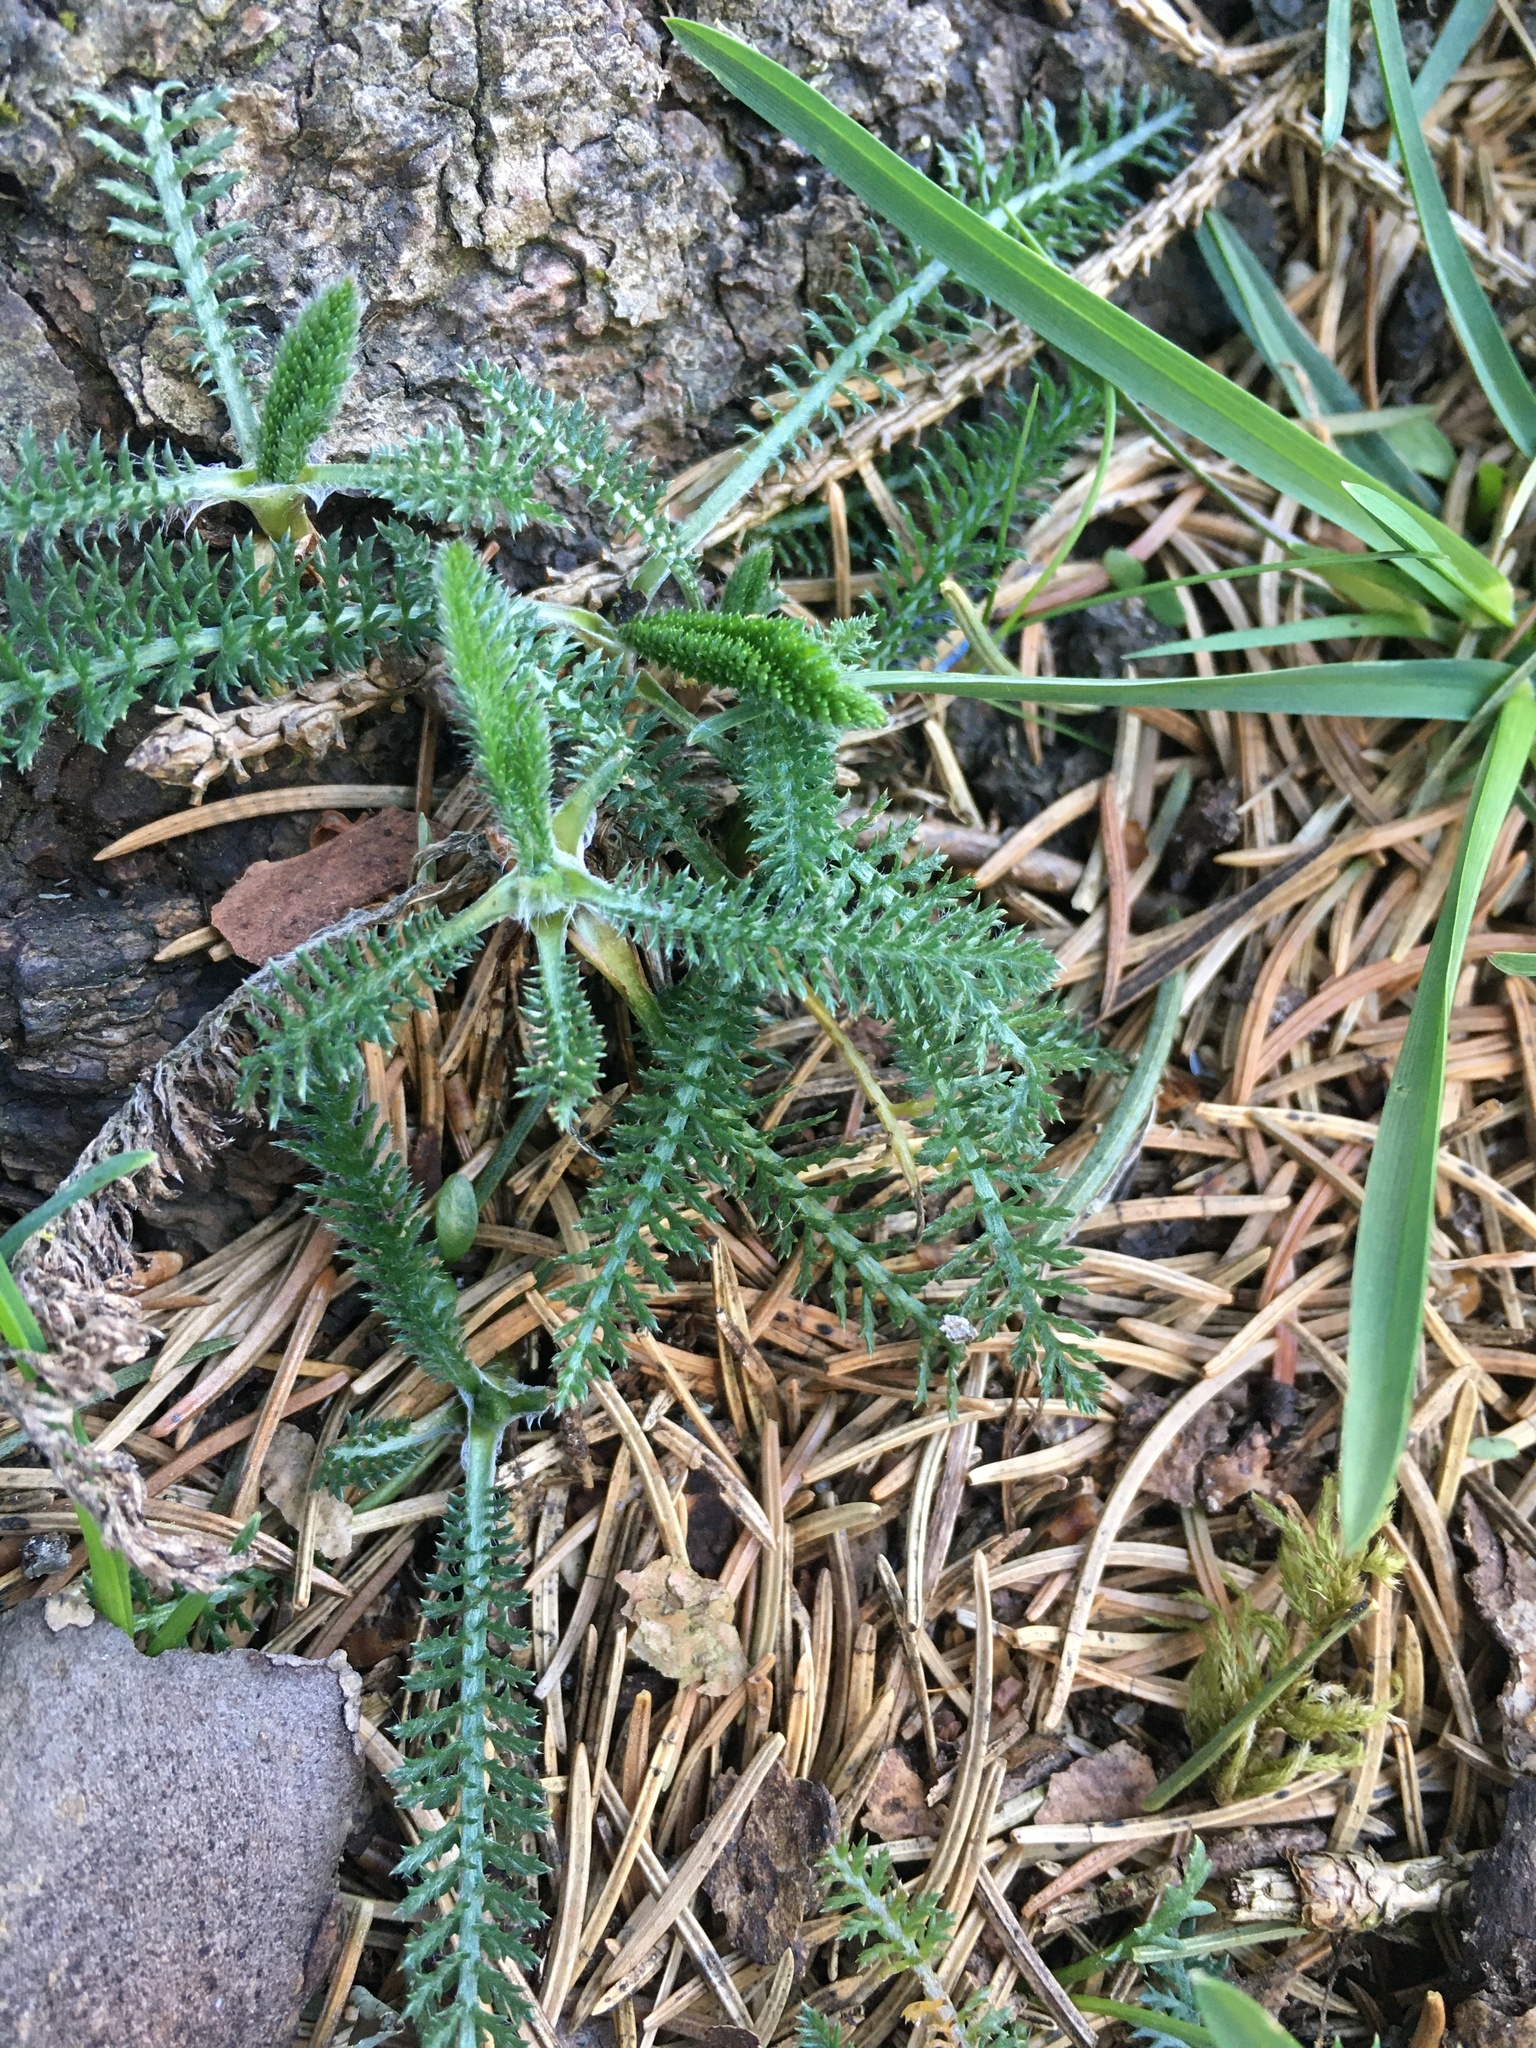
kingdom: Plantae
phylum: Tracheophyta
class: Magnoliopsida
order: Asterales
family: Asteraceae
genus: Achillea
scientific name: Achillea millefolium
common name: Yarrow
